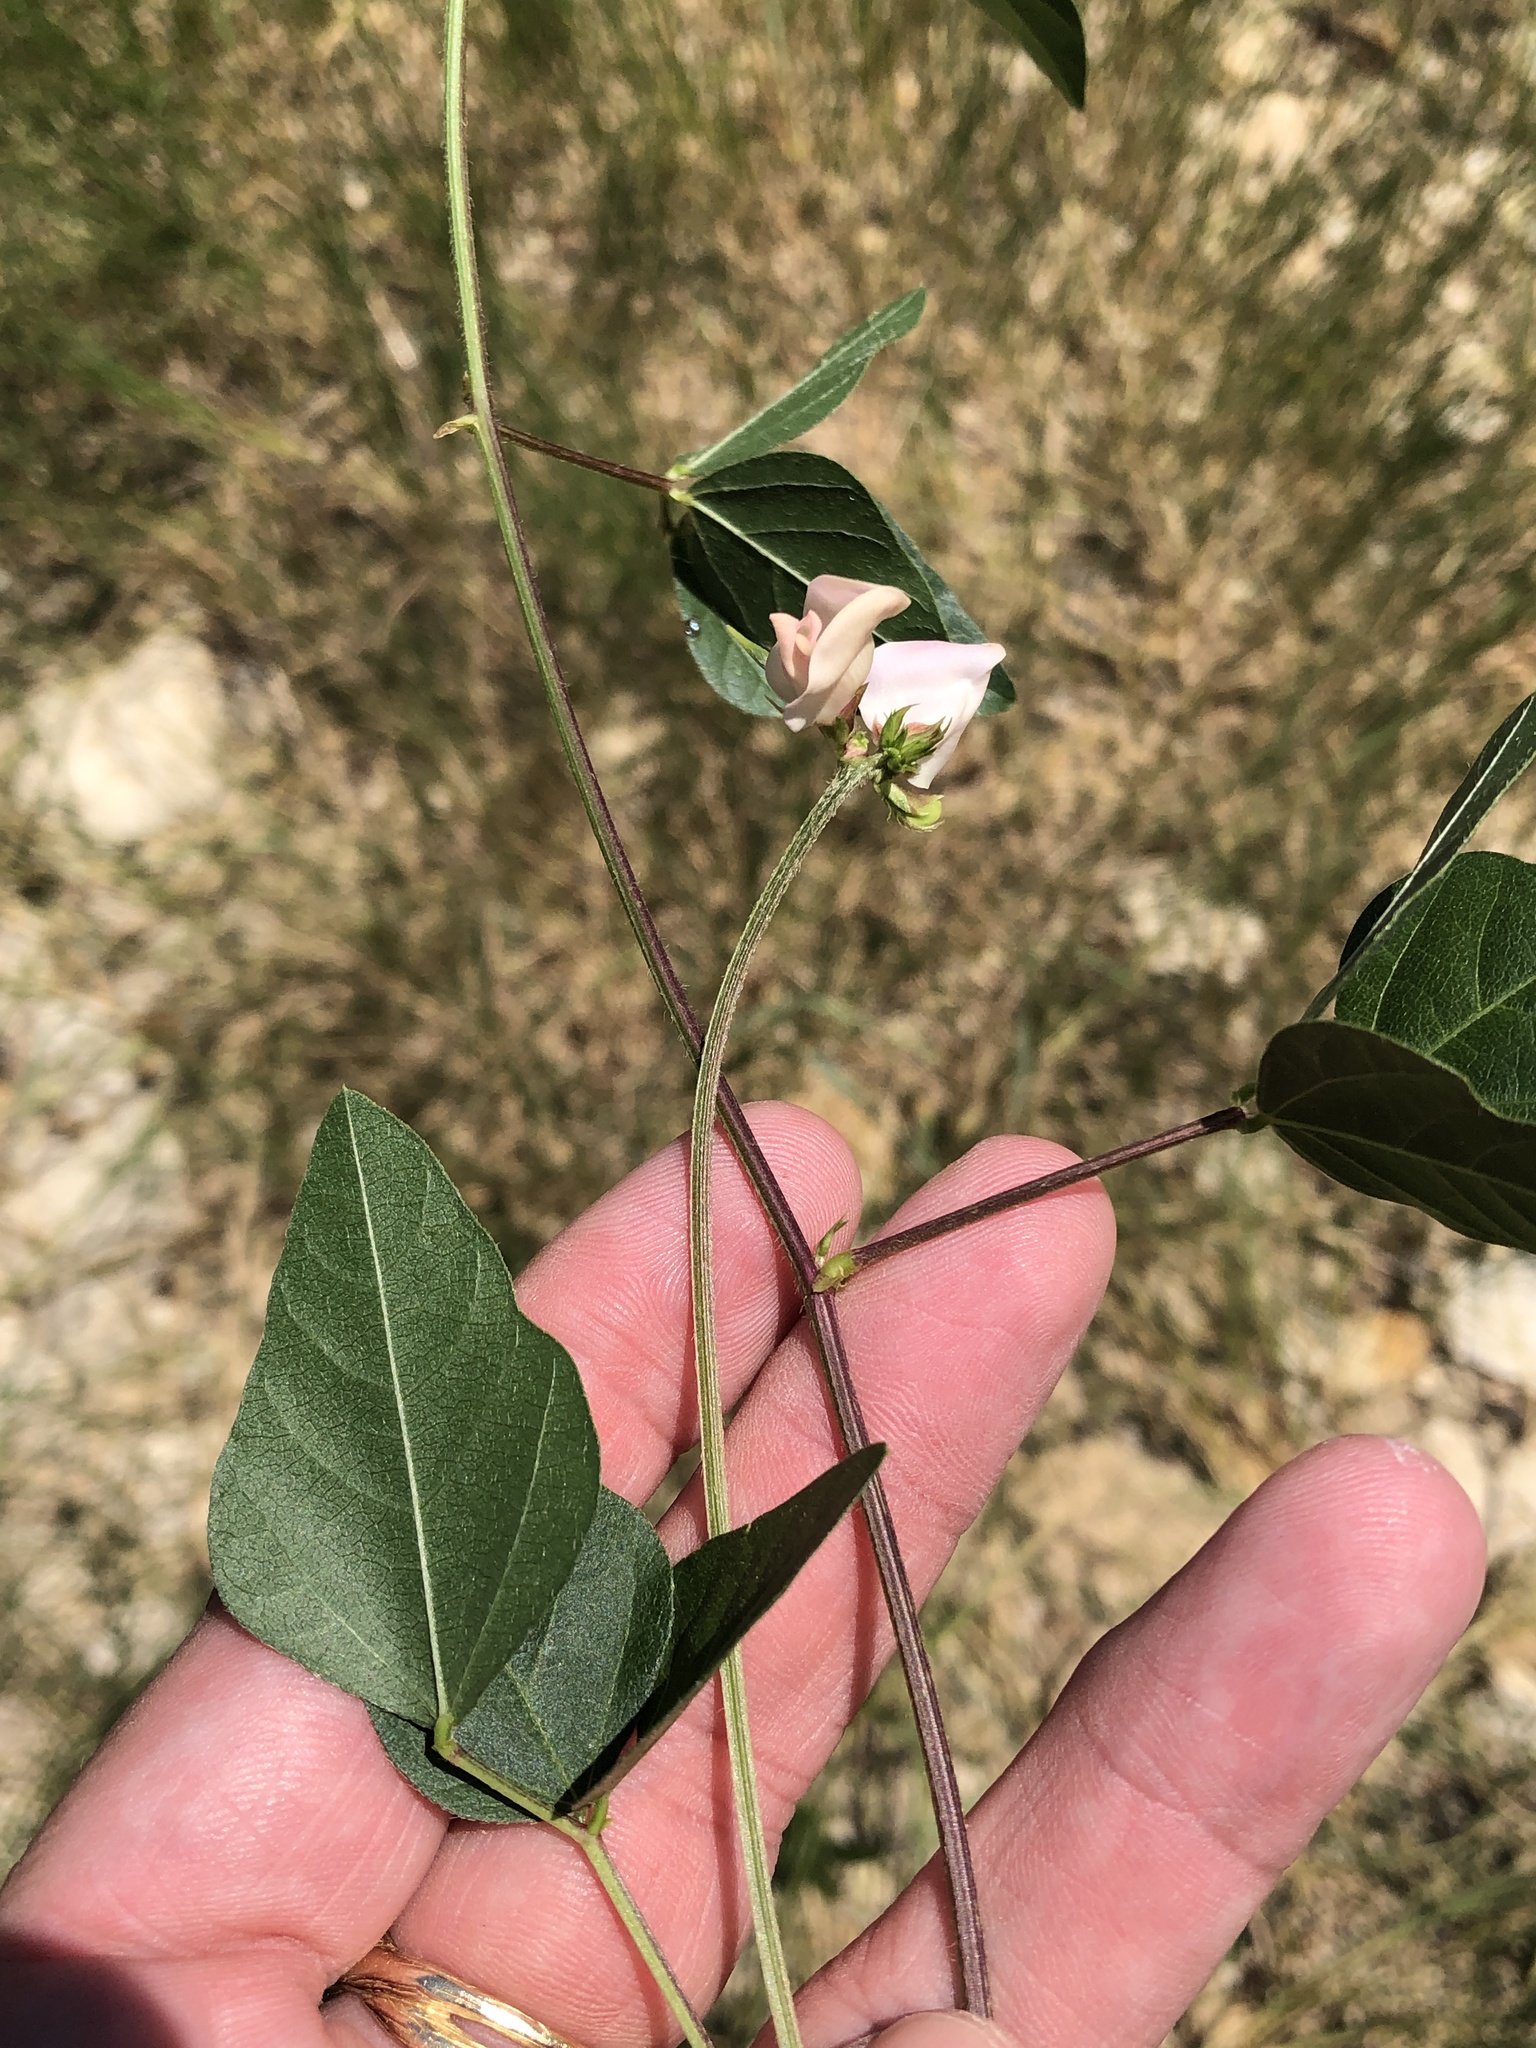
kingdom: Plantae
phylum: Tracheophyta
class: Magnoliopsida
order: Fabales
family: Fabaceae
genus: Strophostyles
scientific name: Strophostyles helvola
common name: Trailing wild bean
